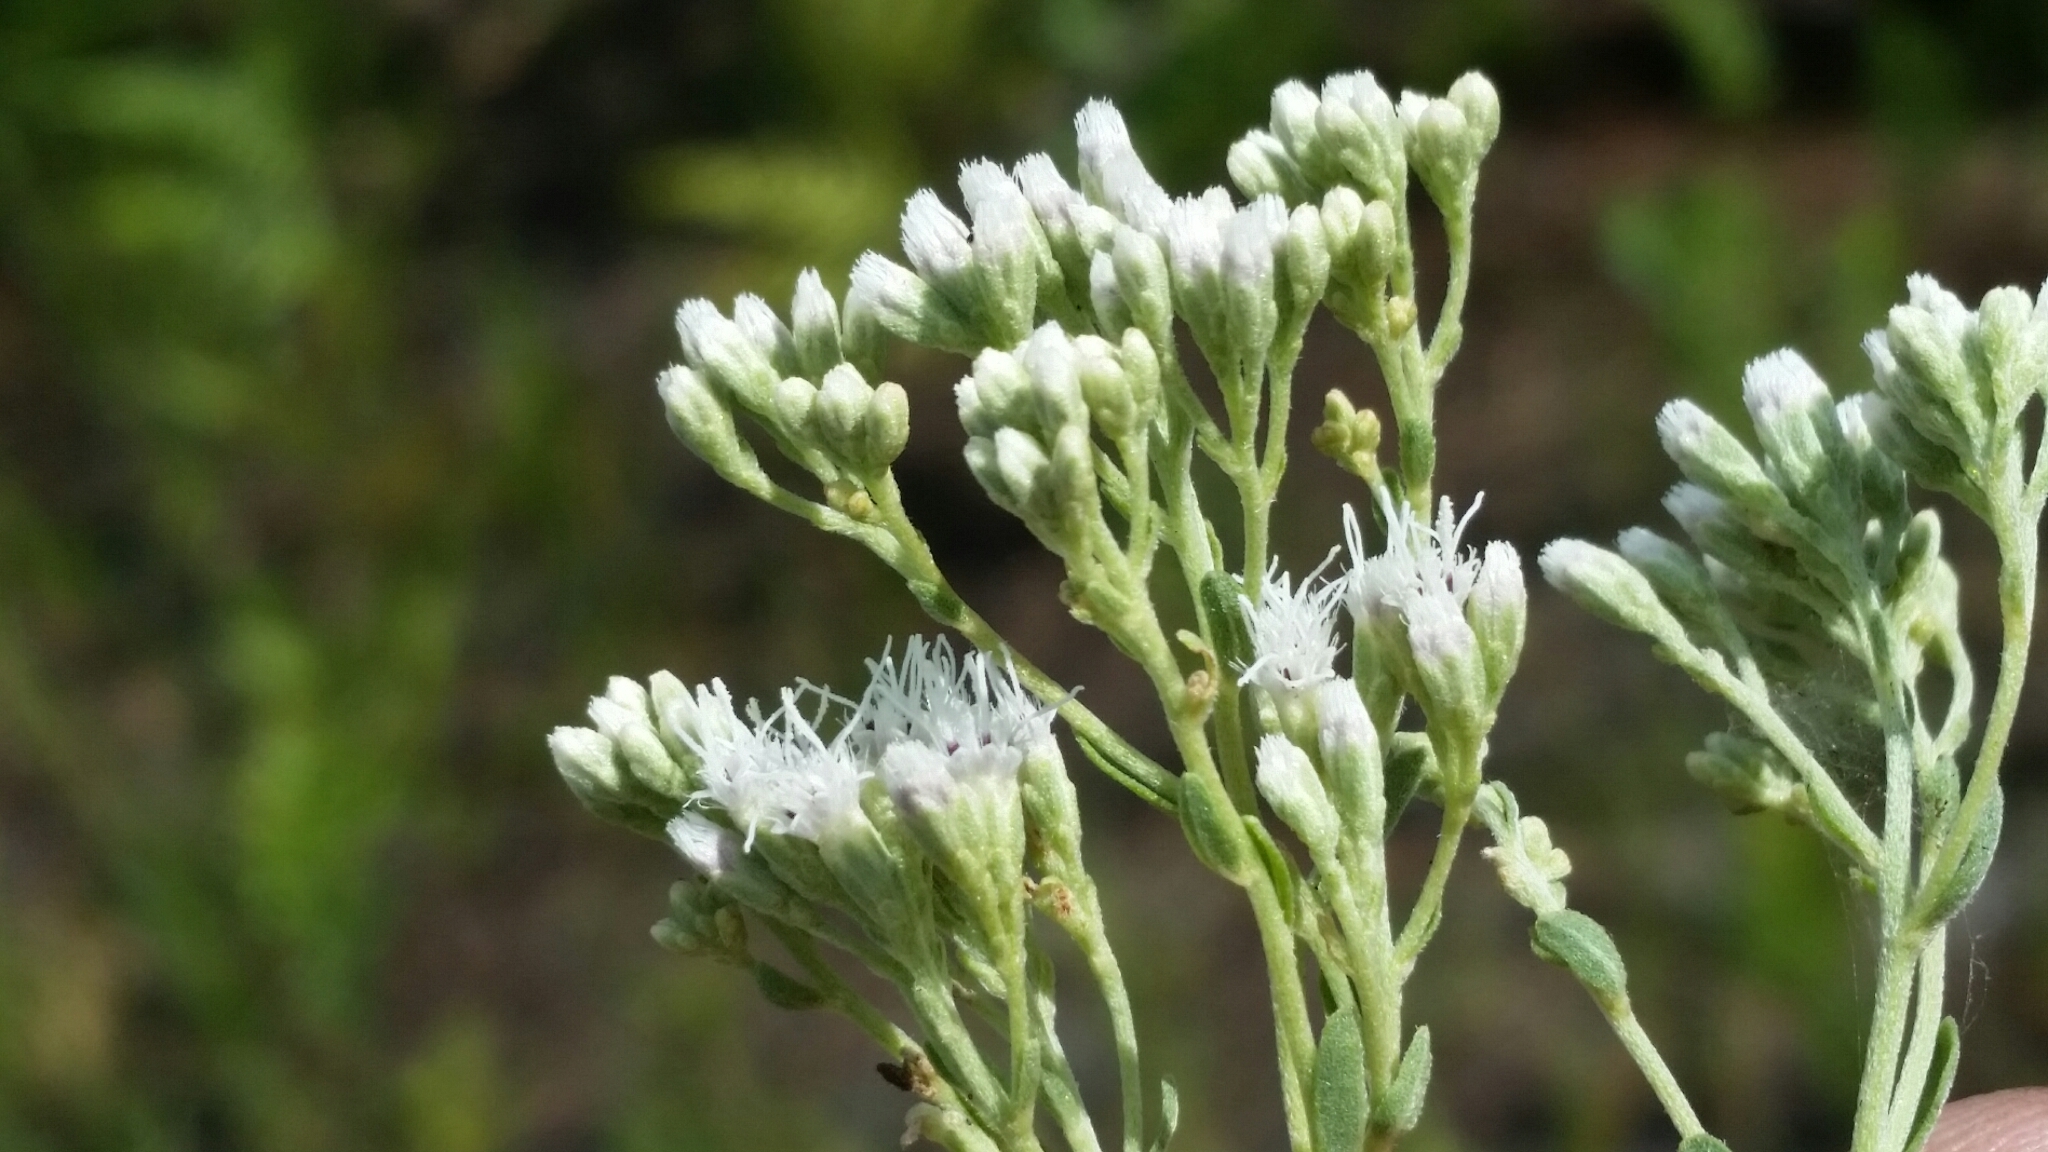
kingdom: Plantae
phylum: Tracheophyta
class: Magnoliopsida
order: Asterales
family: Asteraceae
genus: Eupatorium
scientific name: Eupatorium mohrii
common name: Mohr's thoroughwort
